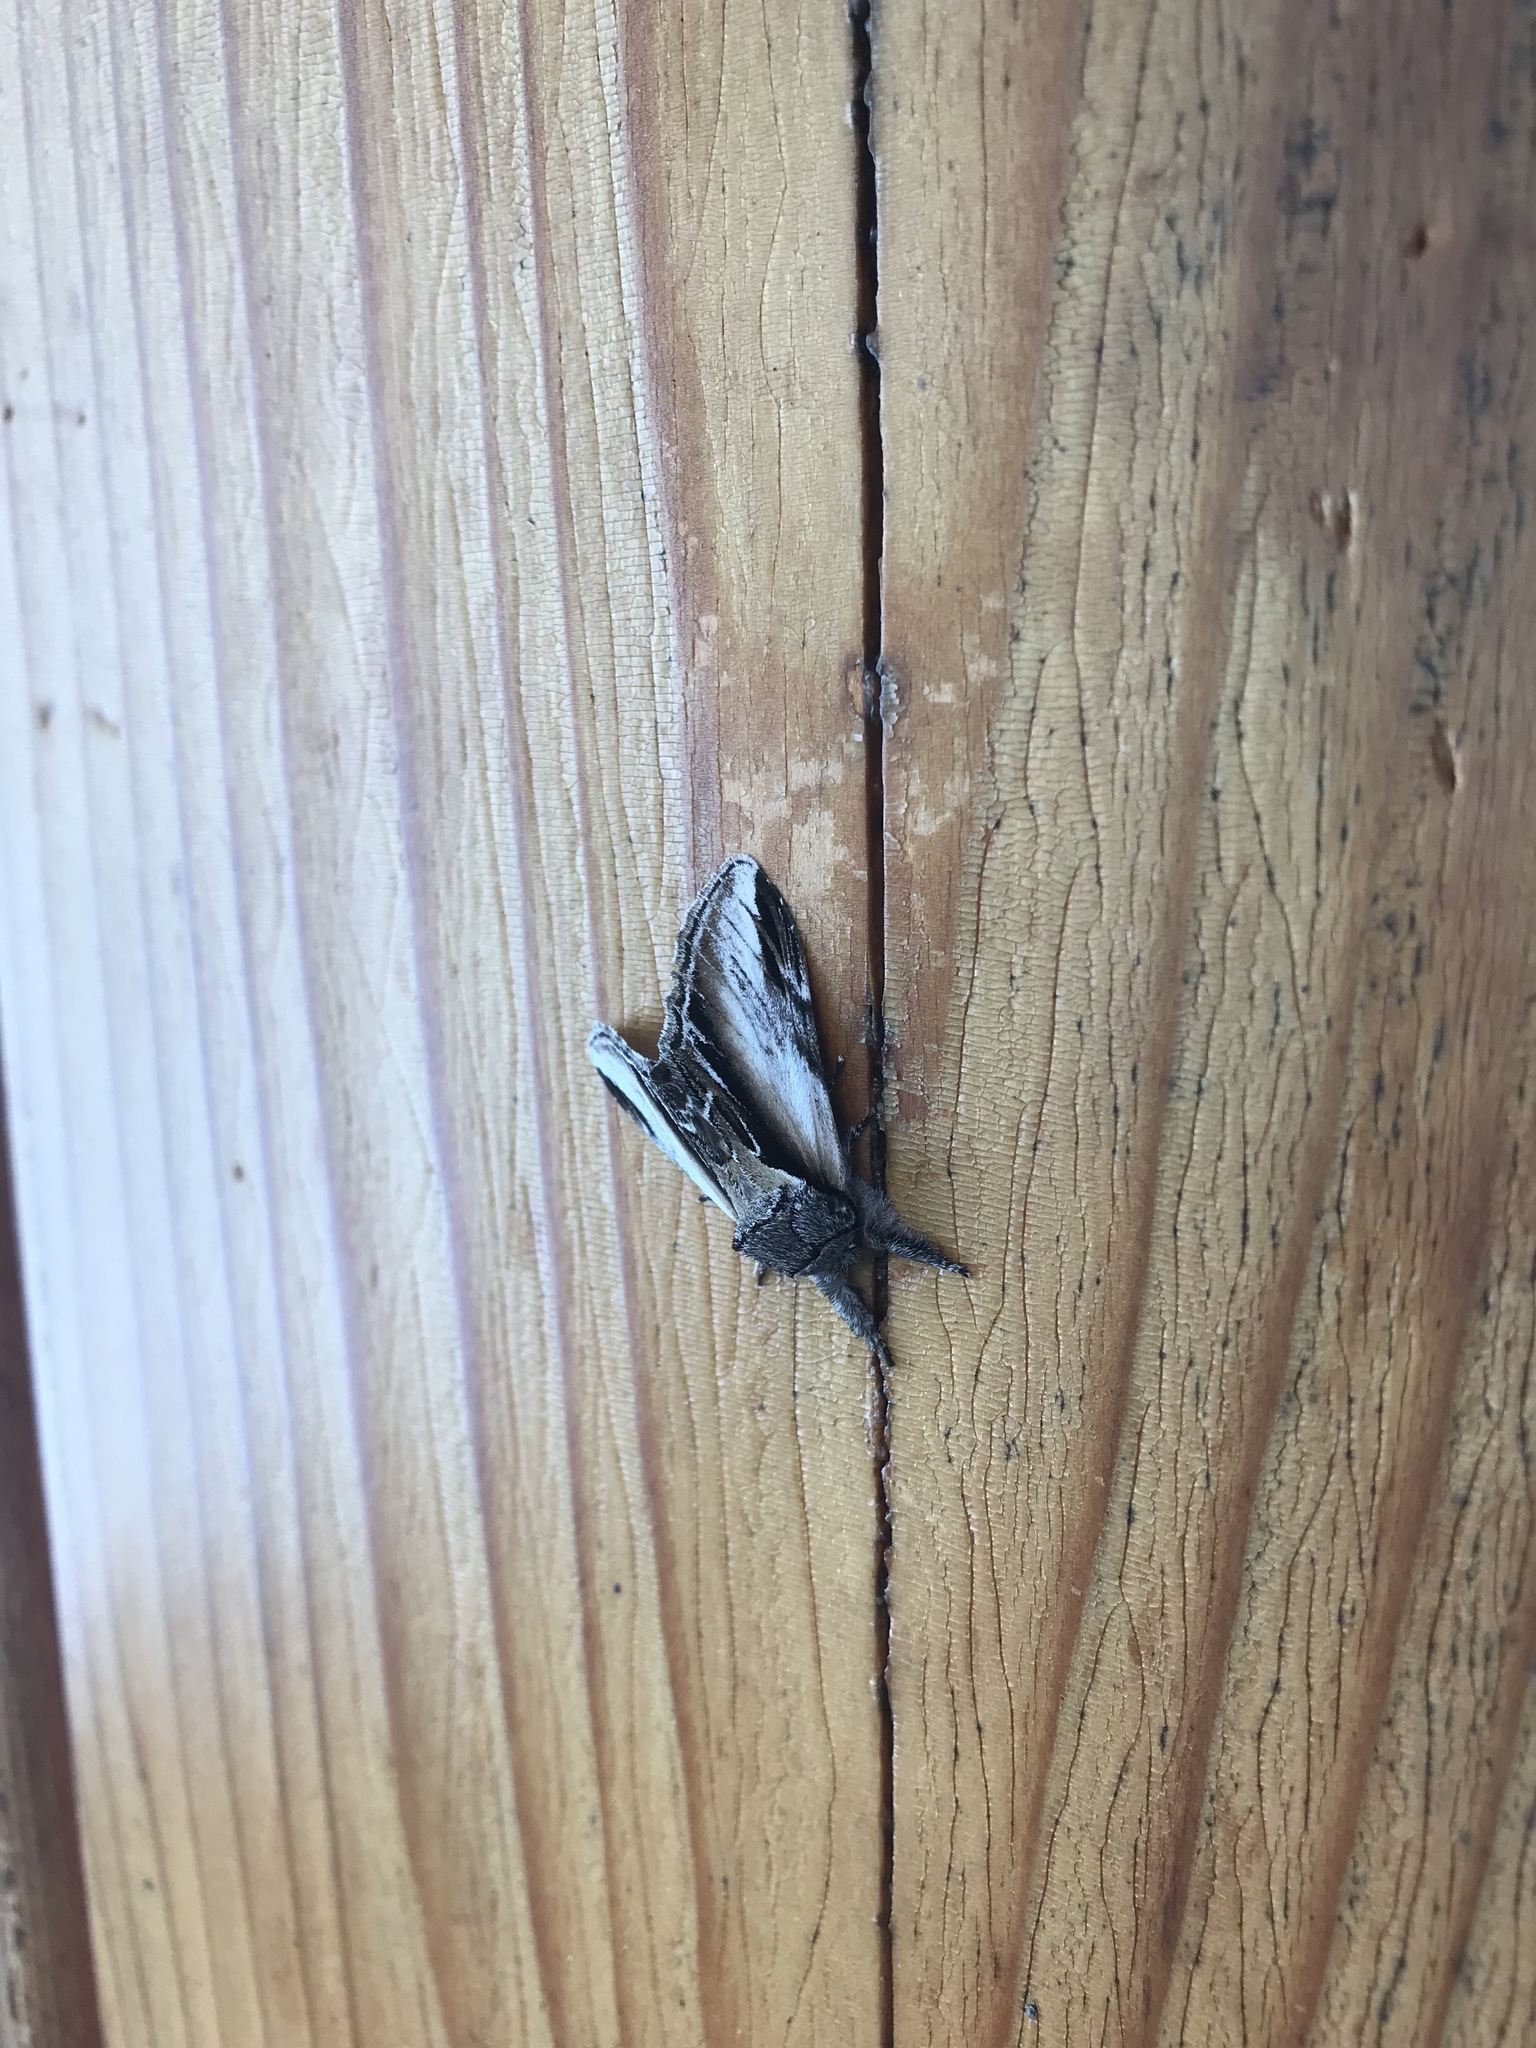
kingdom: Animalia
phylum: Arthropoda
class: Insecta
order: Lepidoptera
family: Notodontidae
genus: Pheosia
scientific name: Pheosia rimosa
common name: Black-rimmed prominent
